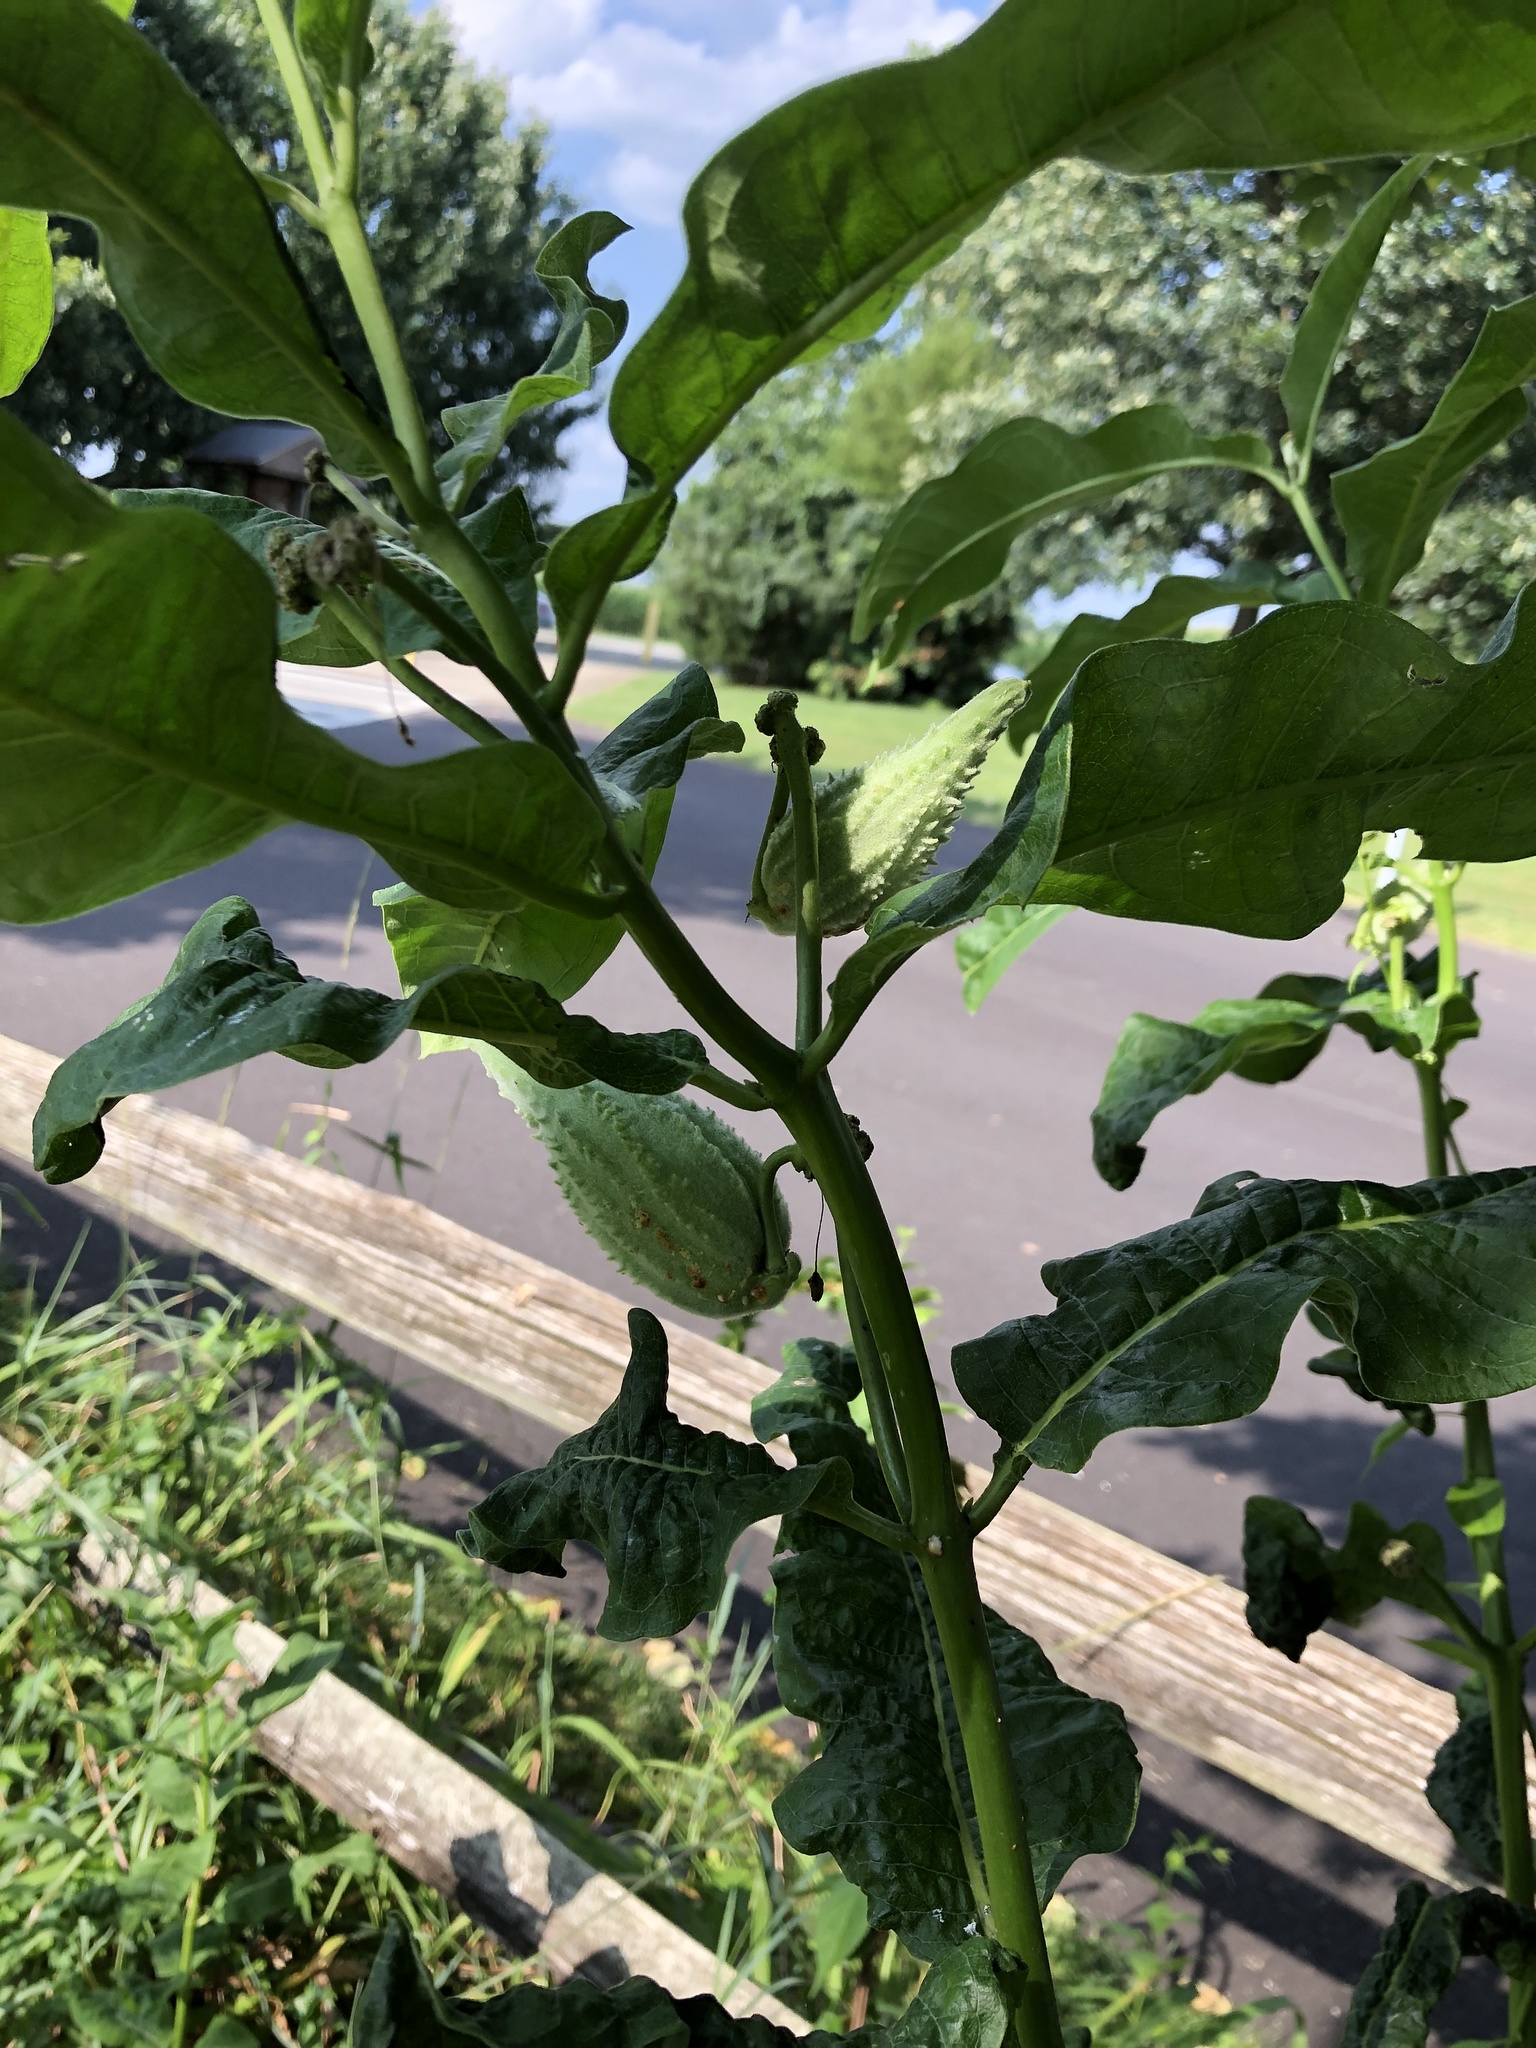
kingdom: Plantae
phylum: Tracheophyta
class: Magnoliopsida
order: Gentianales
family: Apocynaceae
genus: Asclepias
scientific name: Asclepias syriaca
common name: Common milkweed
